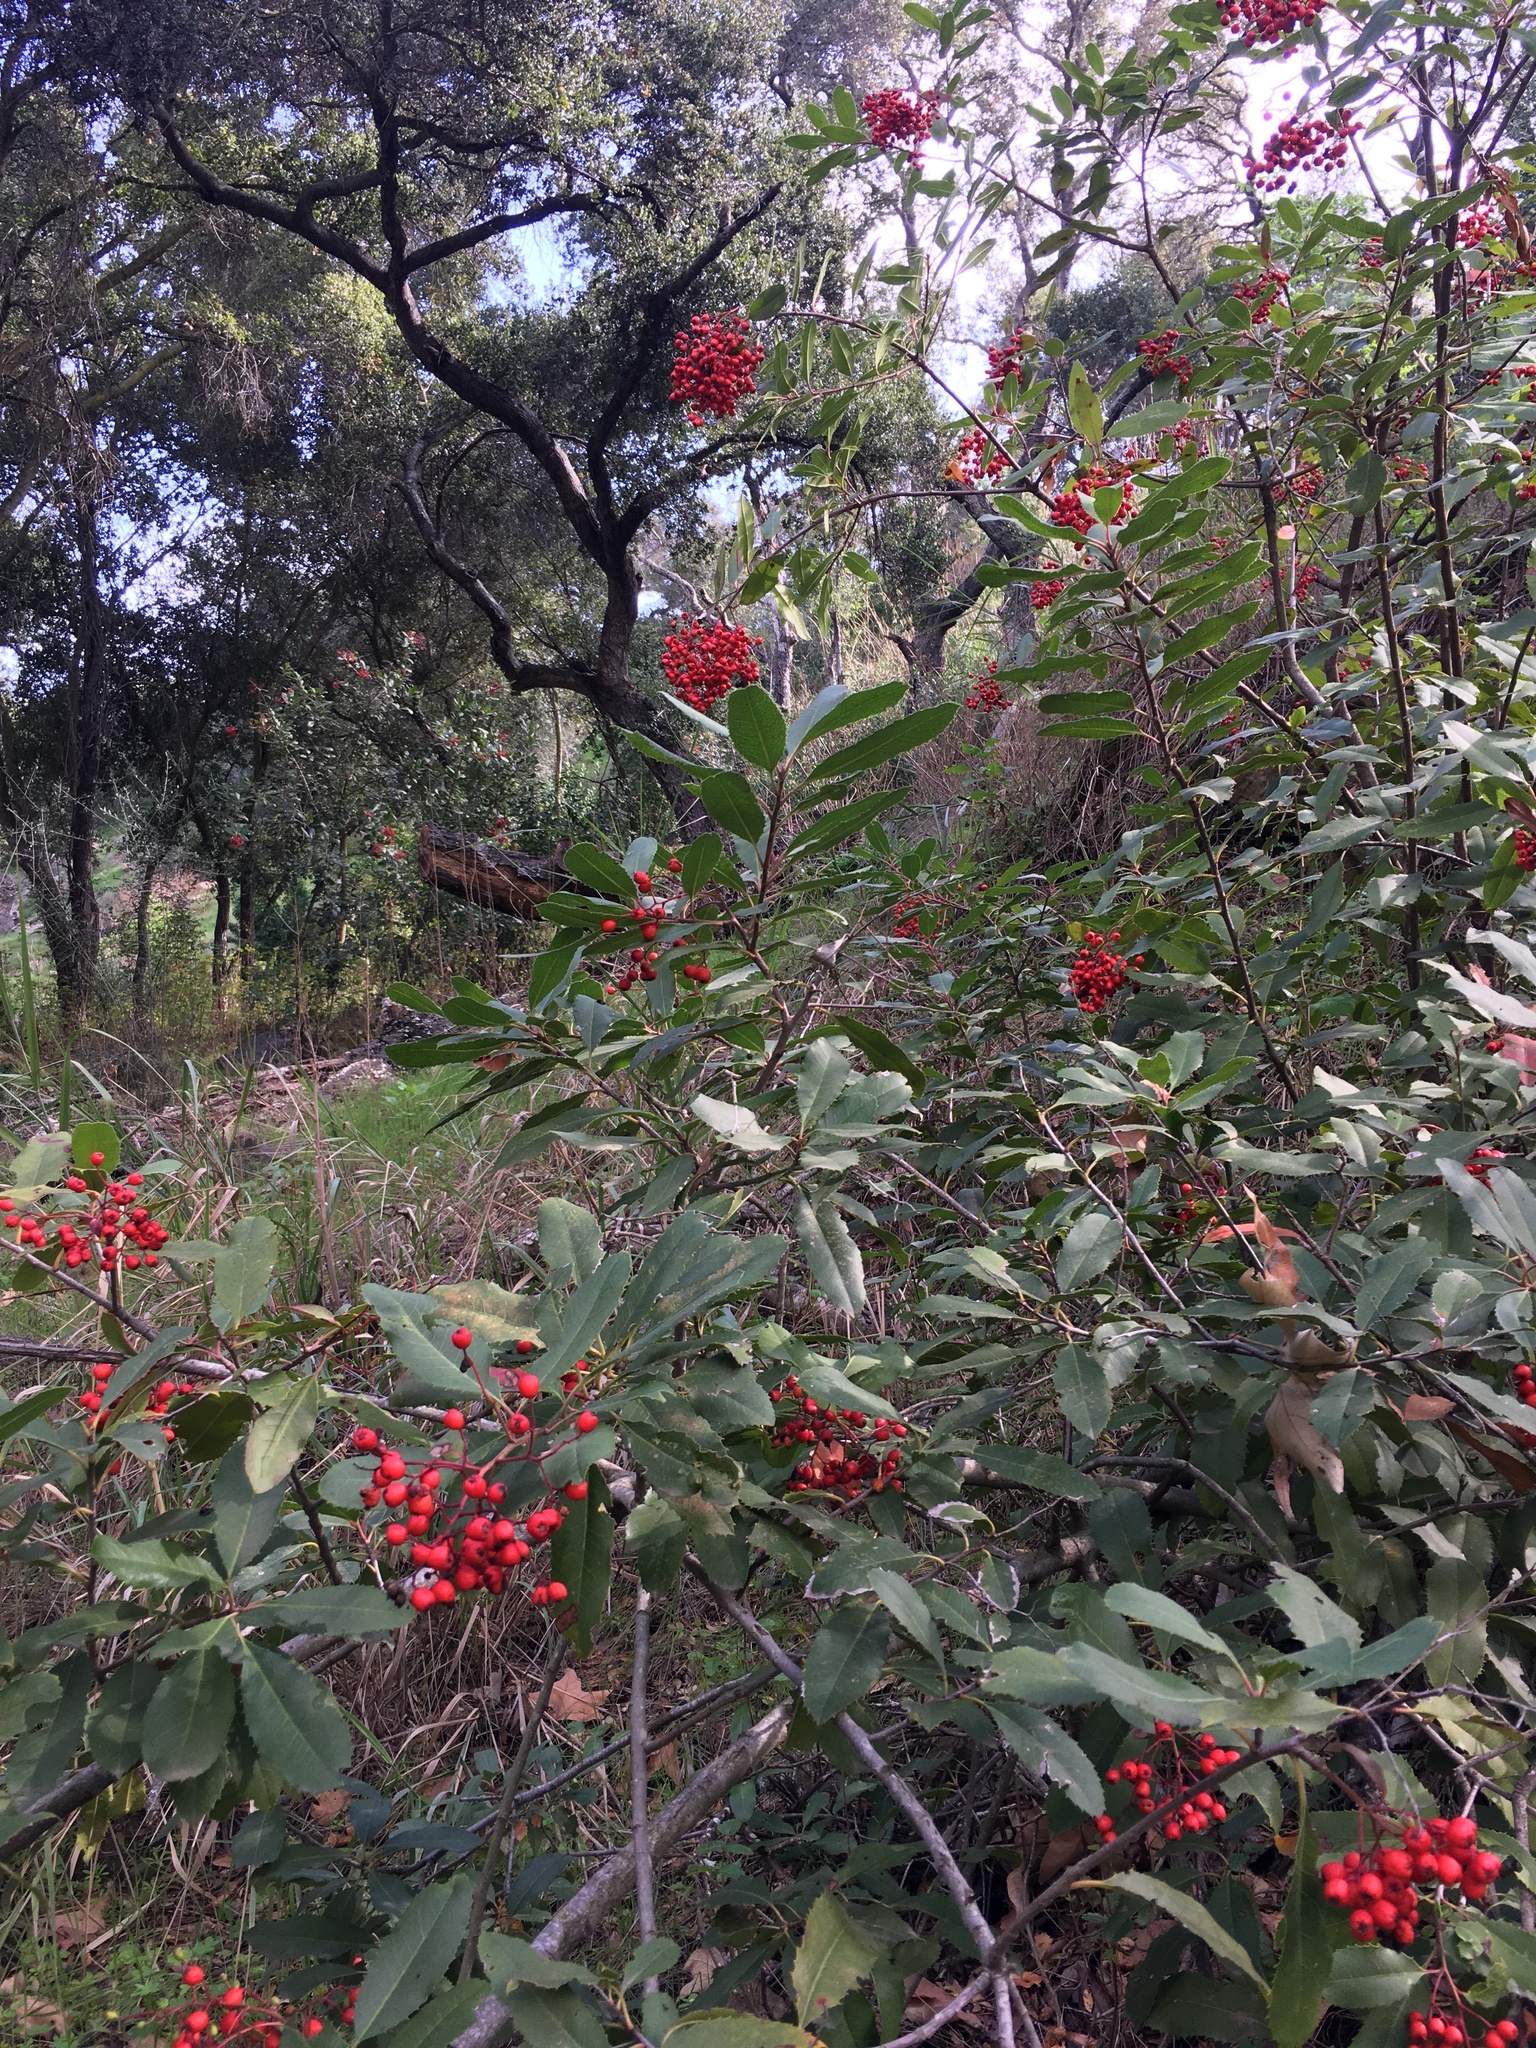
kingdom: Plantae
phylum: Tracheophyta
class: Magnoliopsida
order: Rosales
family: Rosaceae
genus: Heteromeles
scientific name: Heteromeles arbutifolia
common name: California-holly
